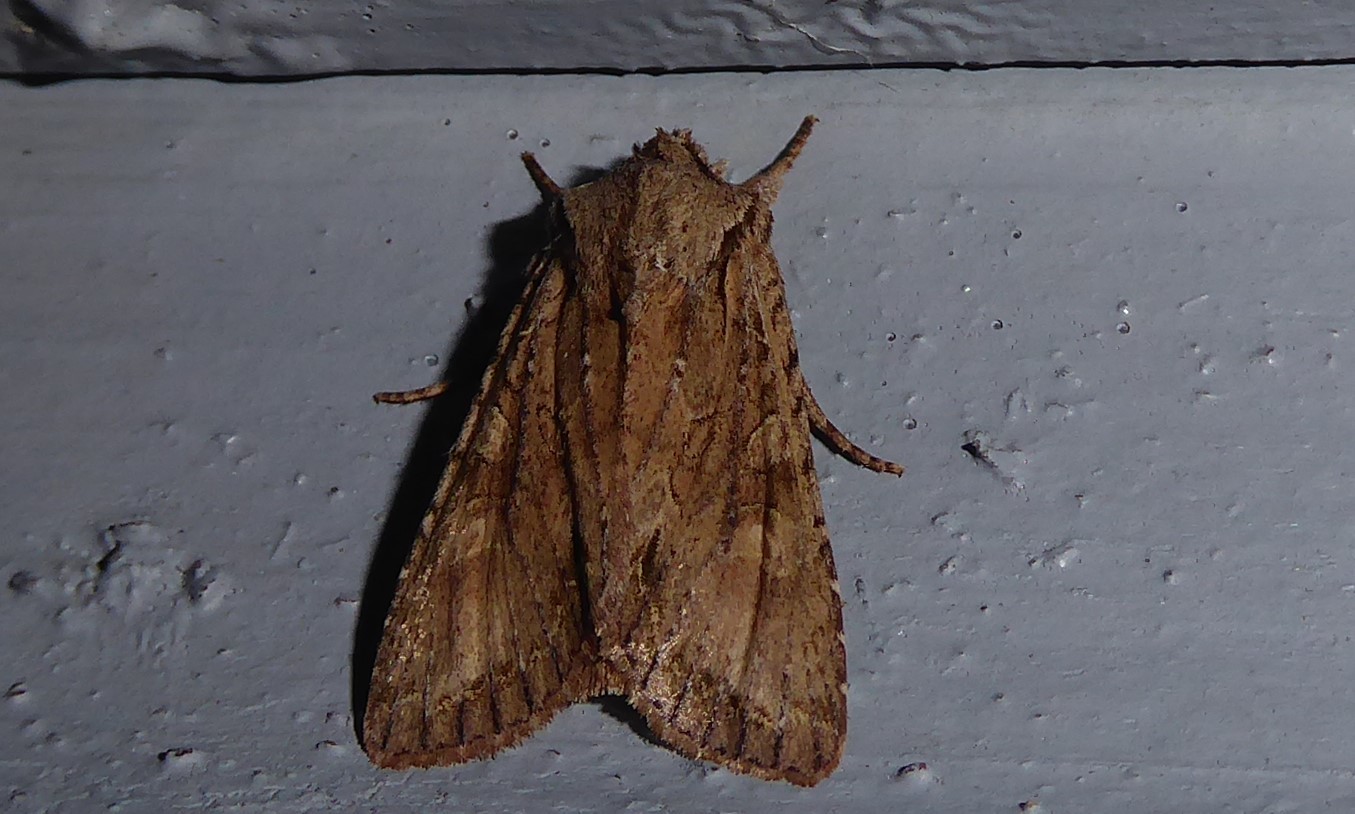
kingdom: Animalia
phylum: Arthropoda
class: Insecta
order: Lepidoptera
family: Noctuidae
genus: Ichneutica
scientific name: Ichneutica
